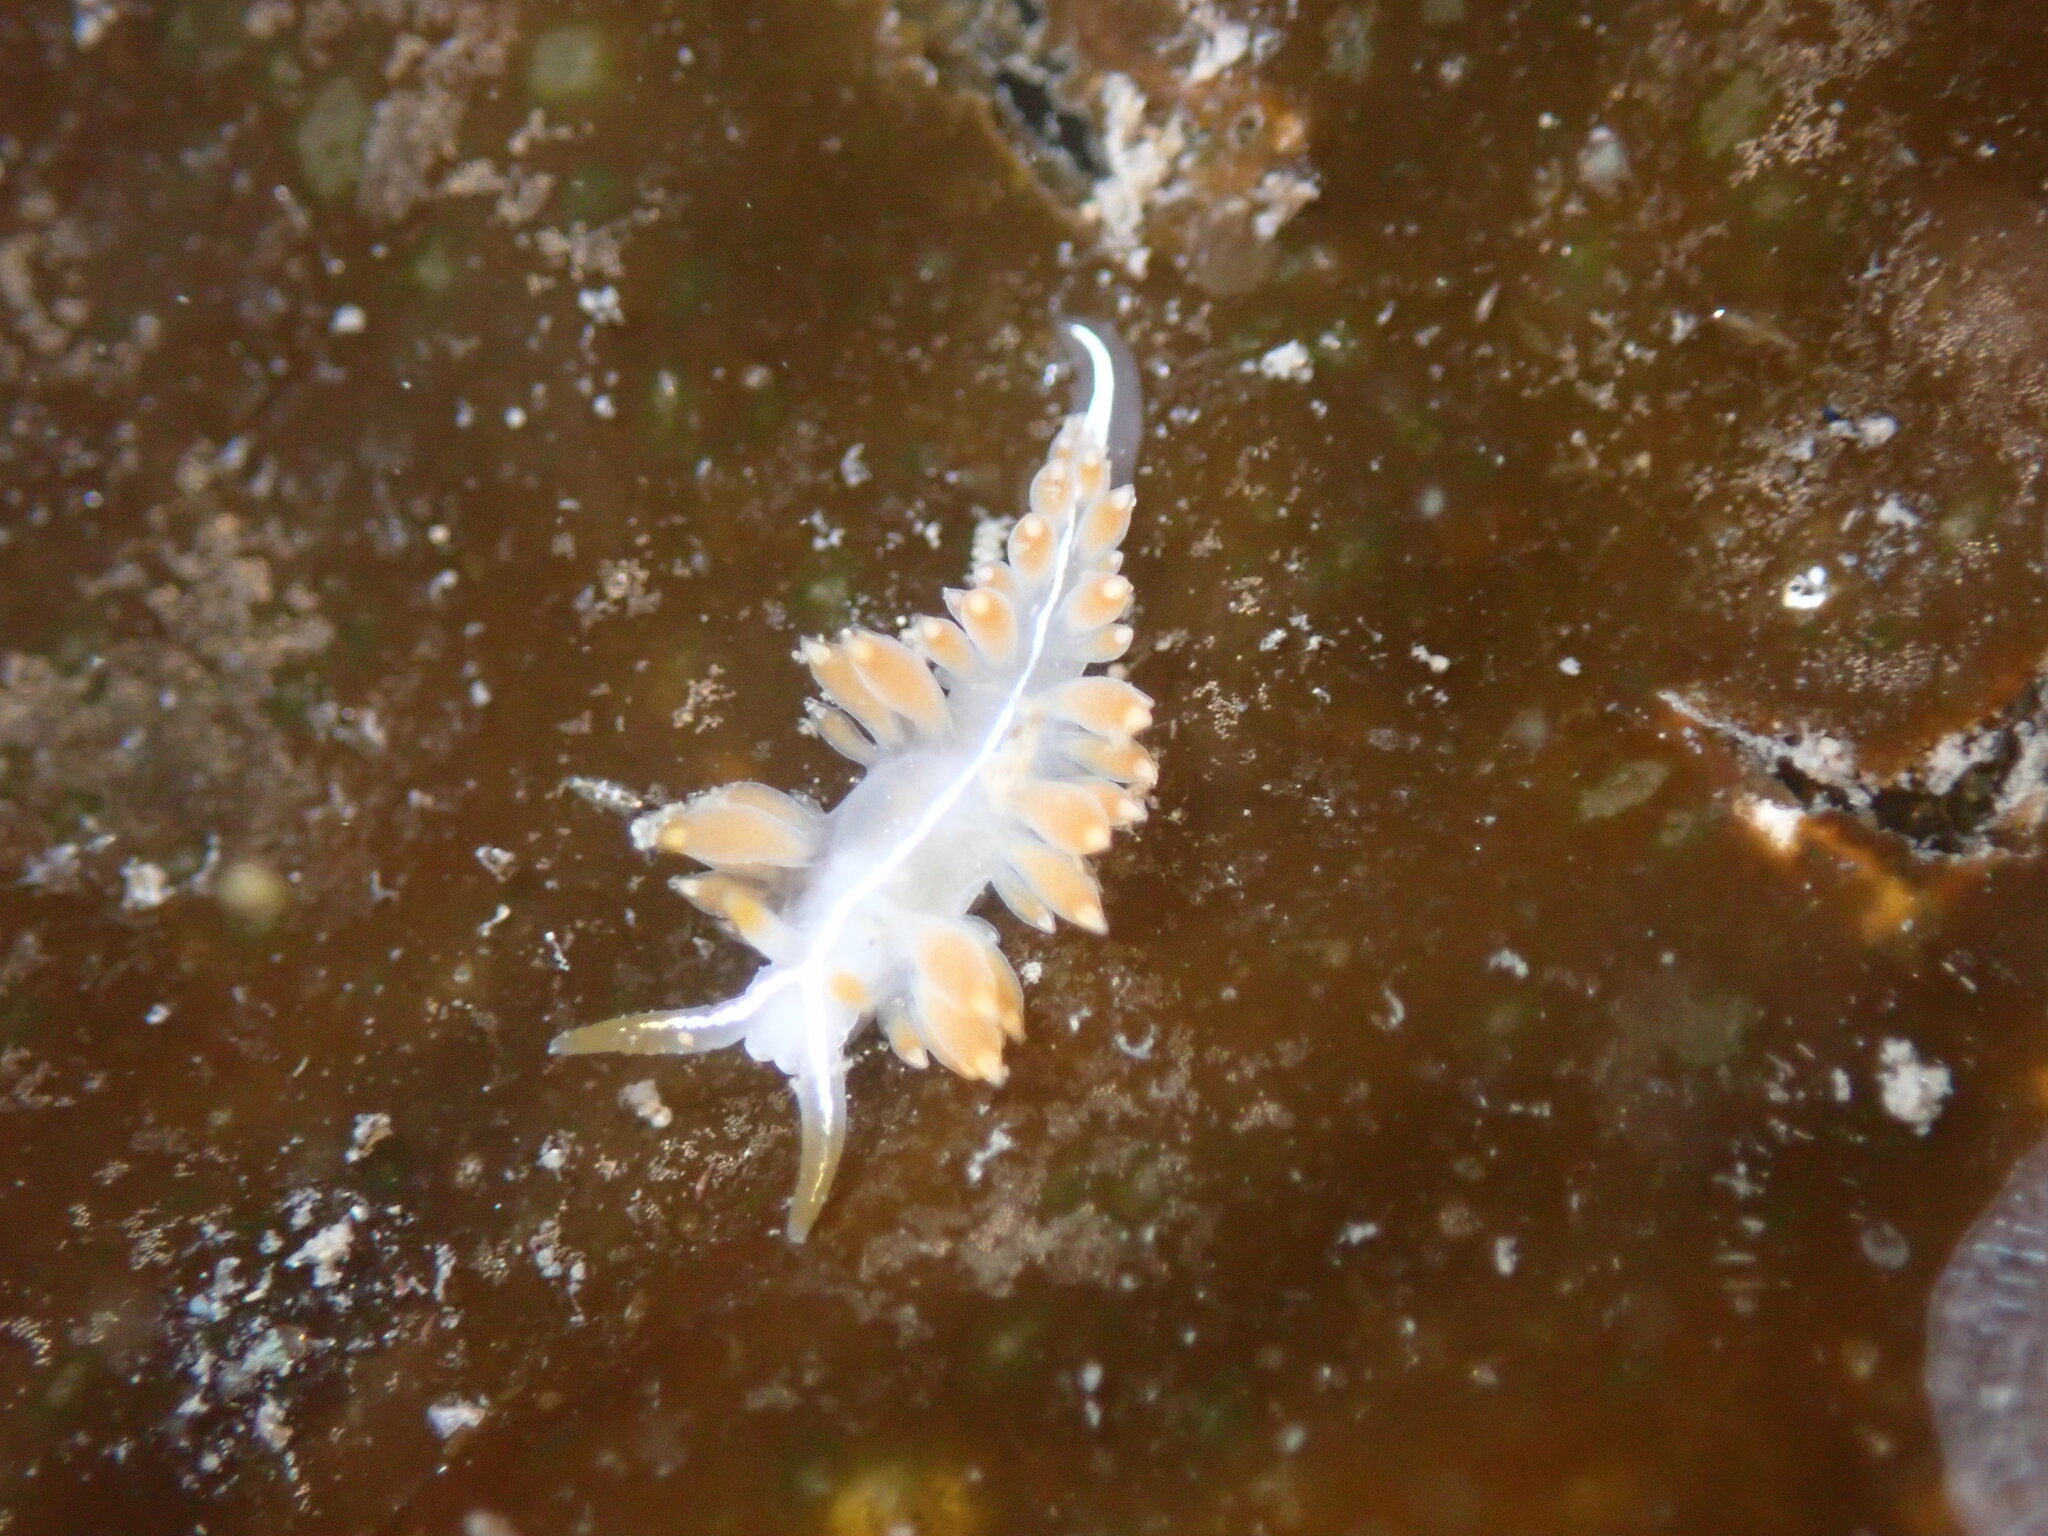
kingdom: Animalia
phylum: Mollusca
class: Gastropoda
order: Nudibranchia
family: Coryphellidae
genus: Coryphella
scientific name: Coryphella trilineata
